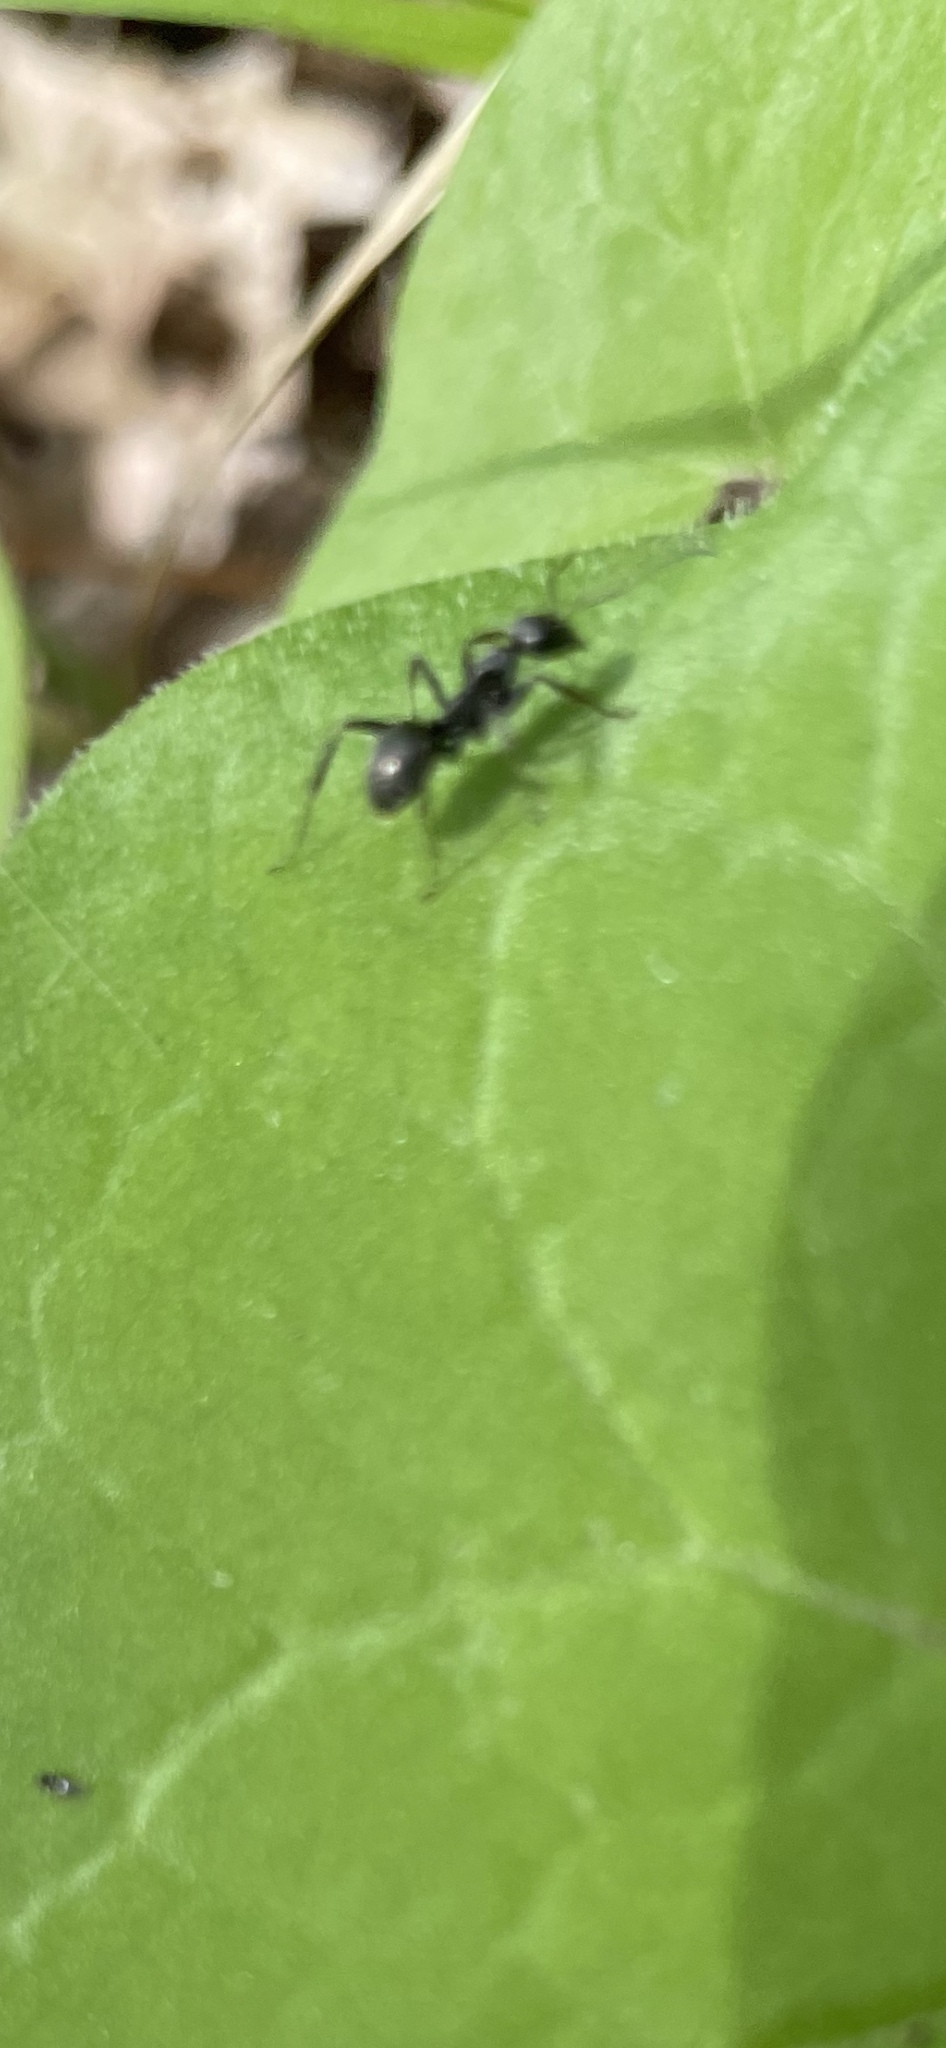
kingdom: Animalia
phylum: Arthropoda
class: Insecta
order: Hymenoptera
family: Formicidae
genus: Formica
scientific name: Formica subsericea
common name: Silky field ant
